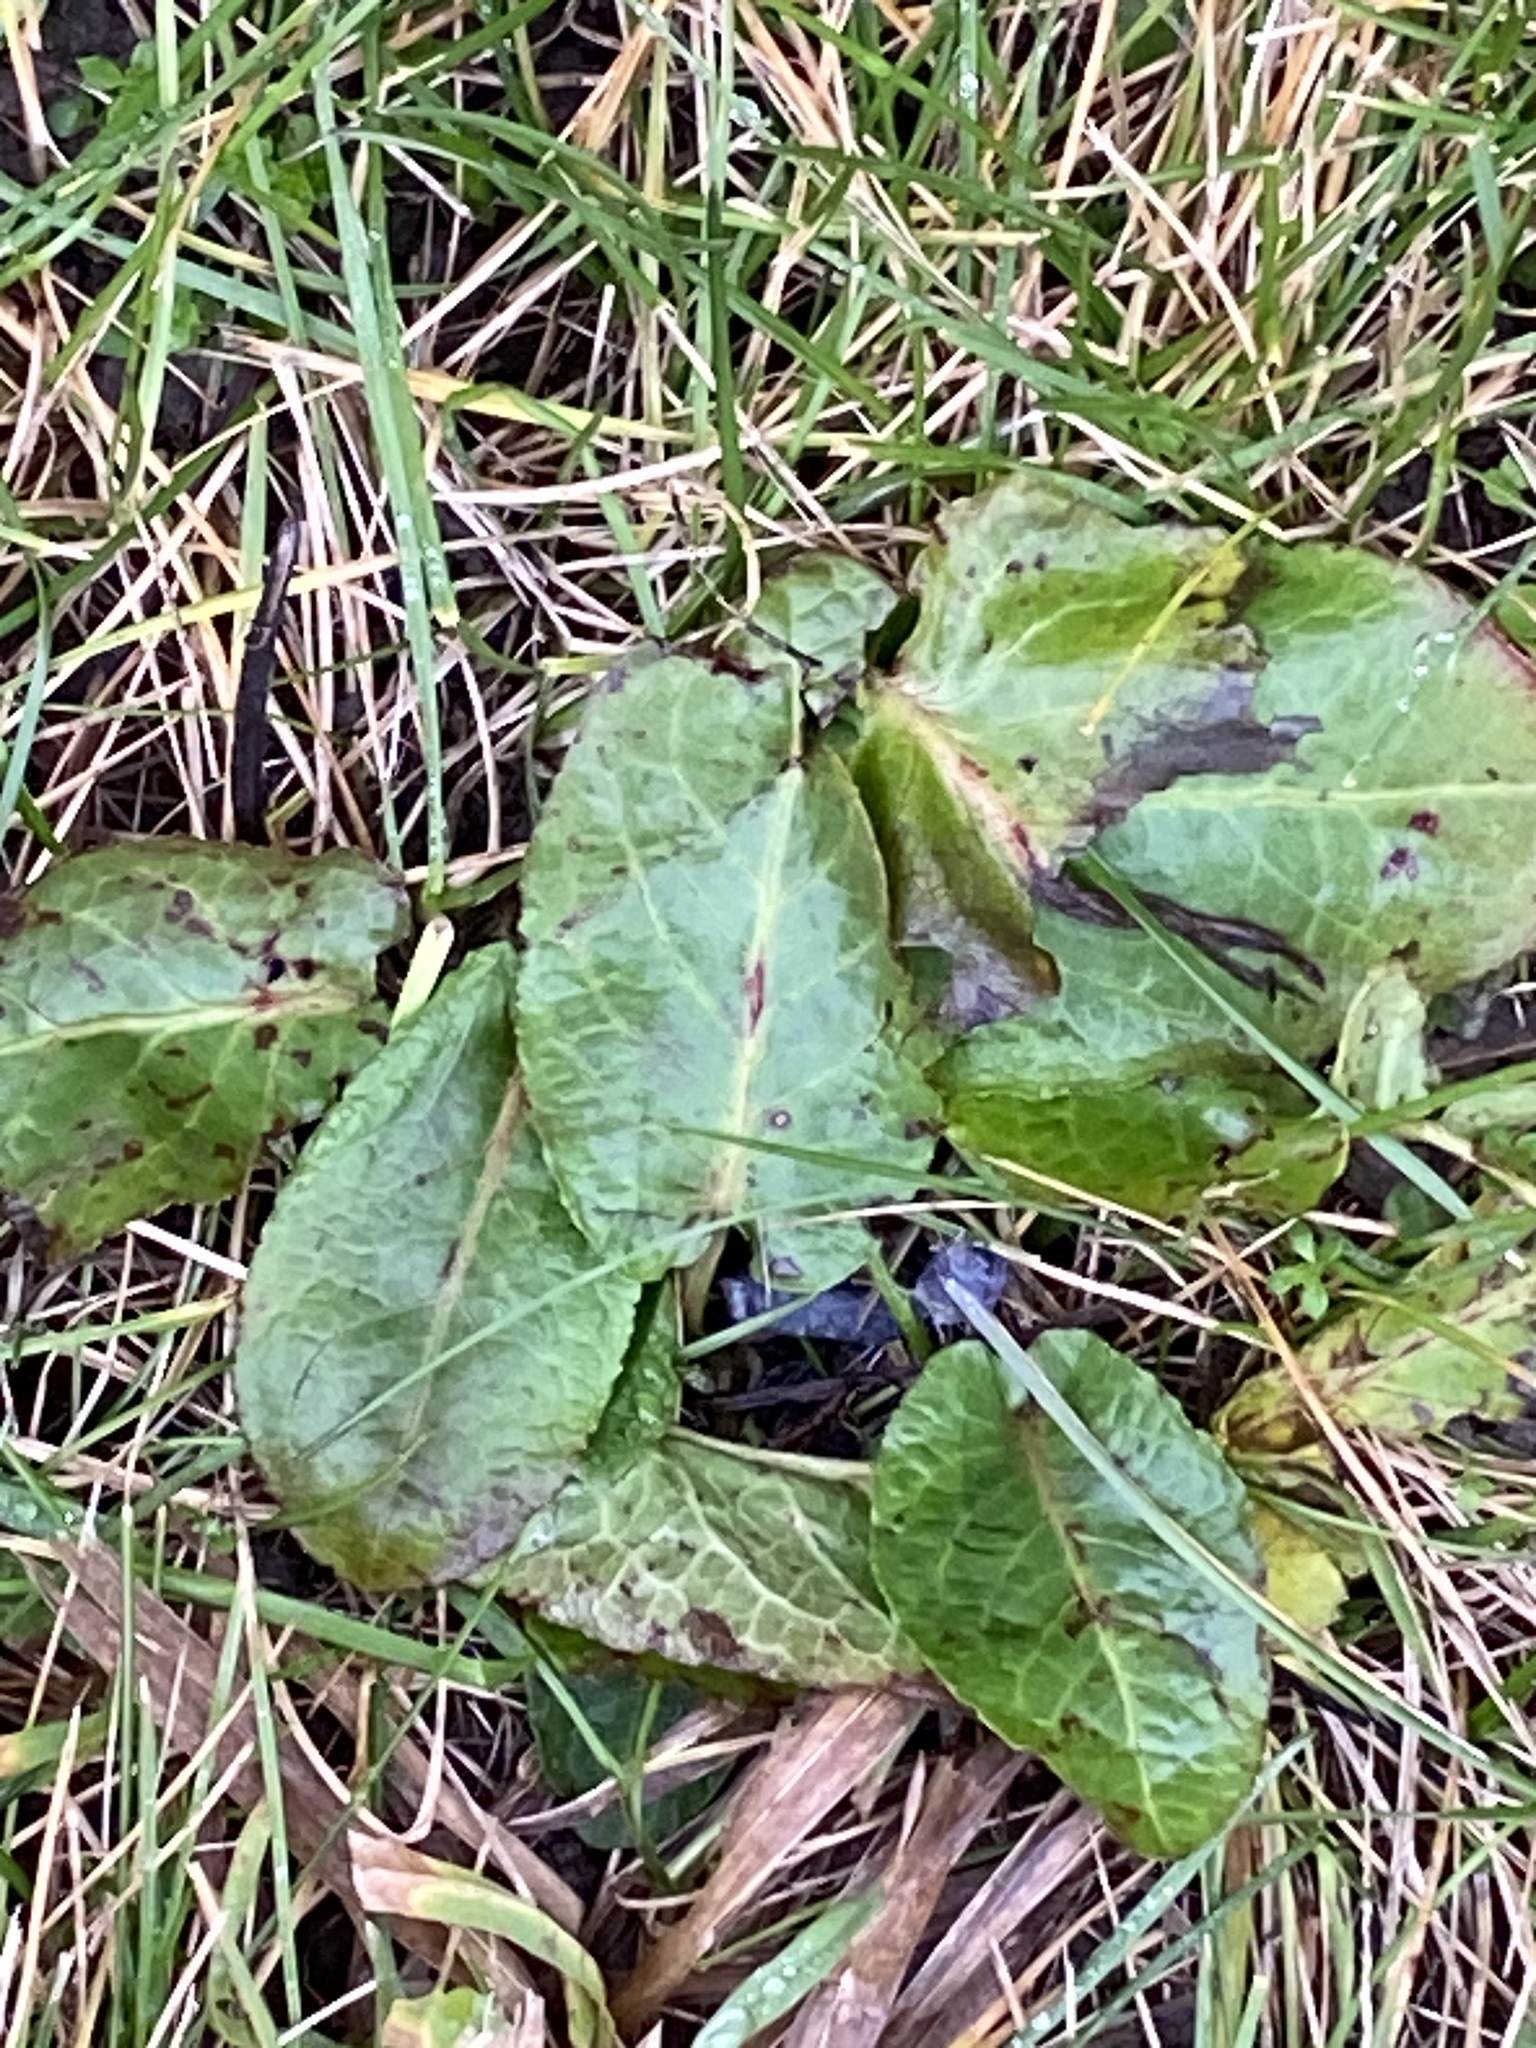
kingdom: Plantae
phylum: Tracheophyta
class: Magnoliopsida
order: Caryophyllales
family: Polygonaceae
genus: Rumex
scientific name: Rumex obtusifolius
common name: Bitter dock
